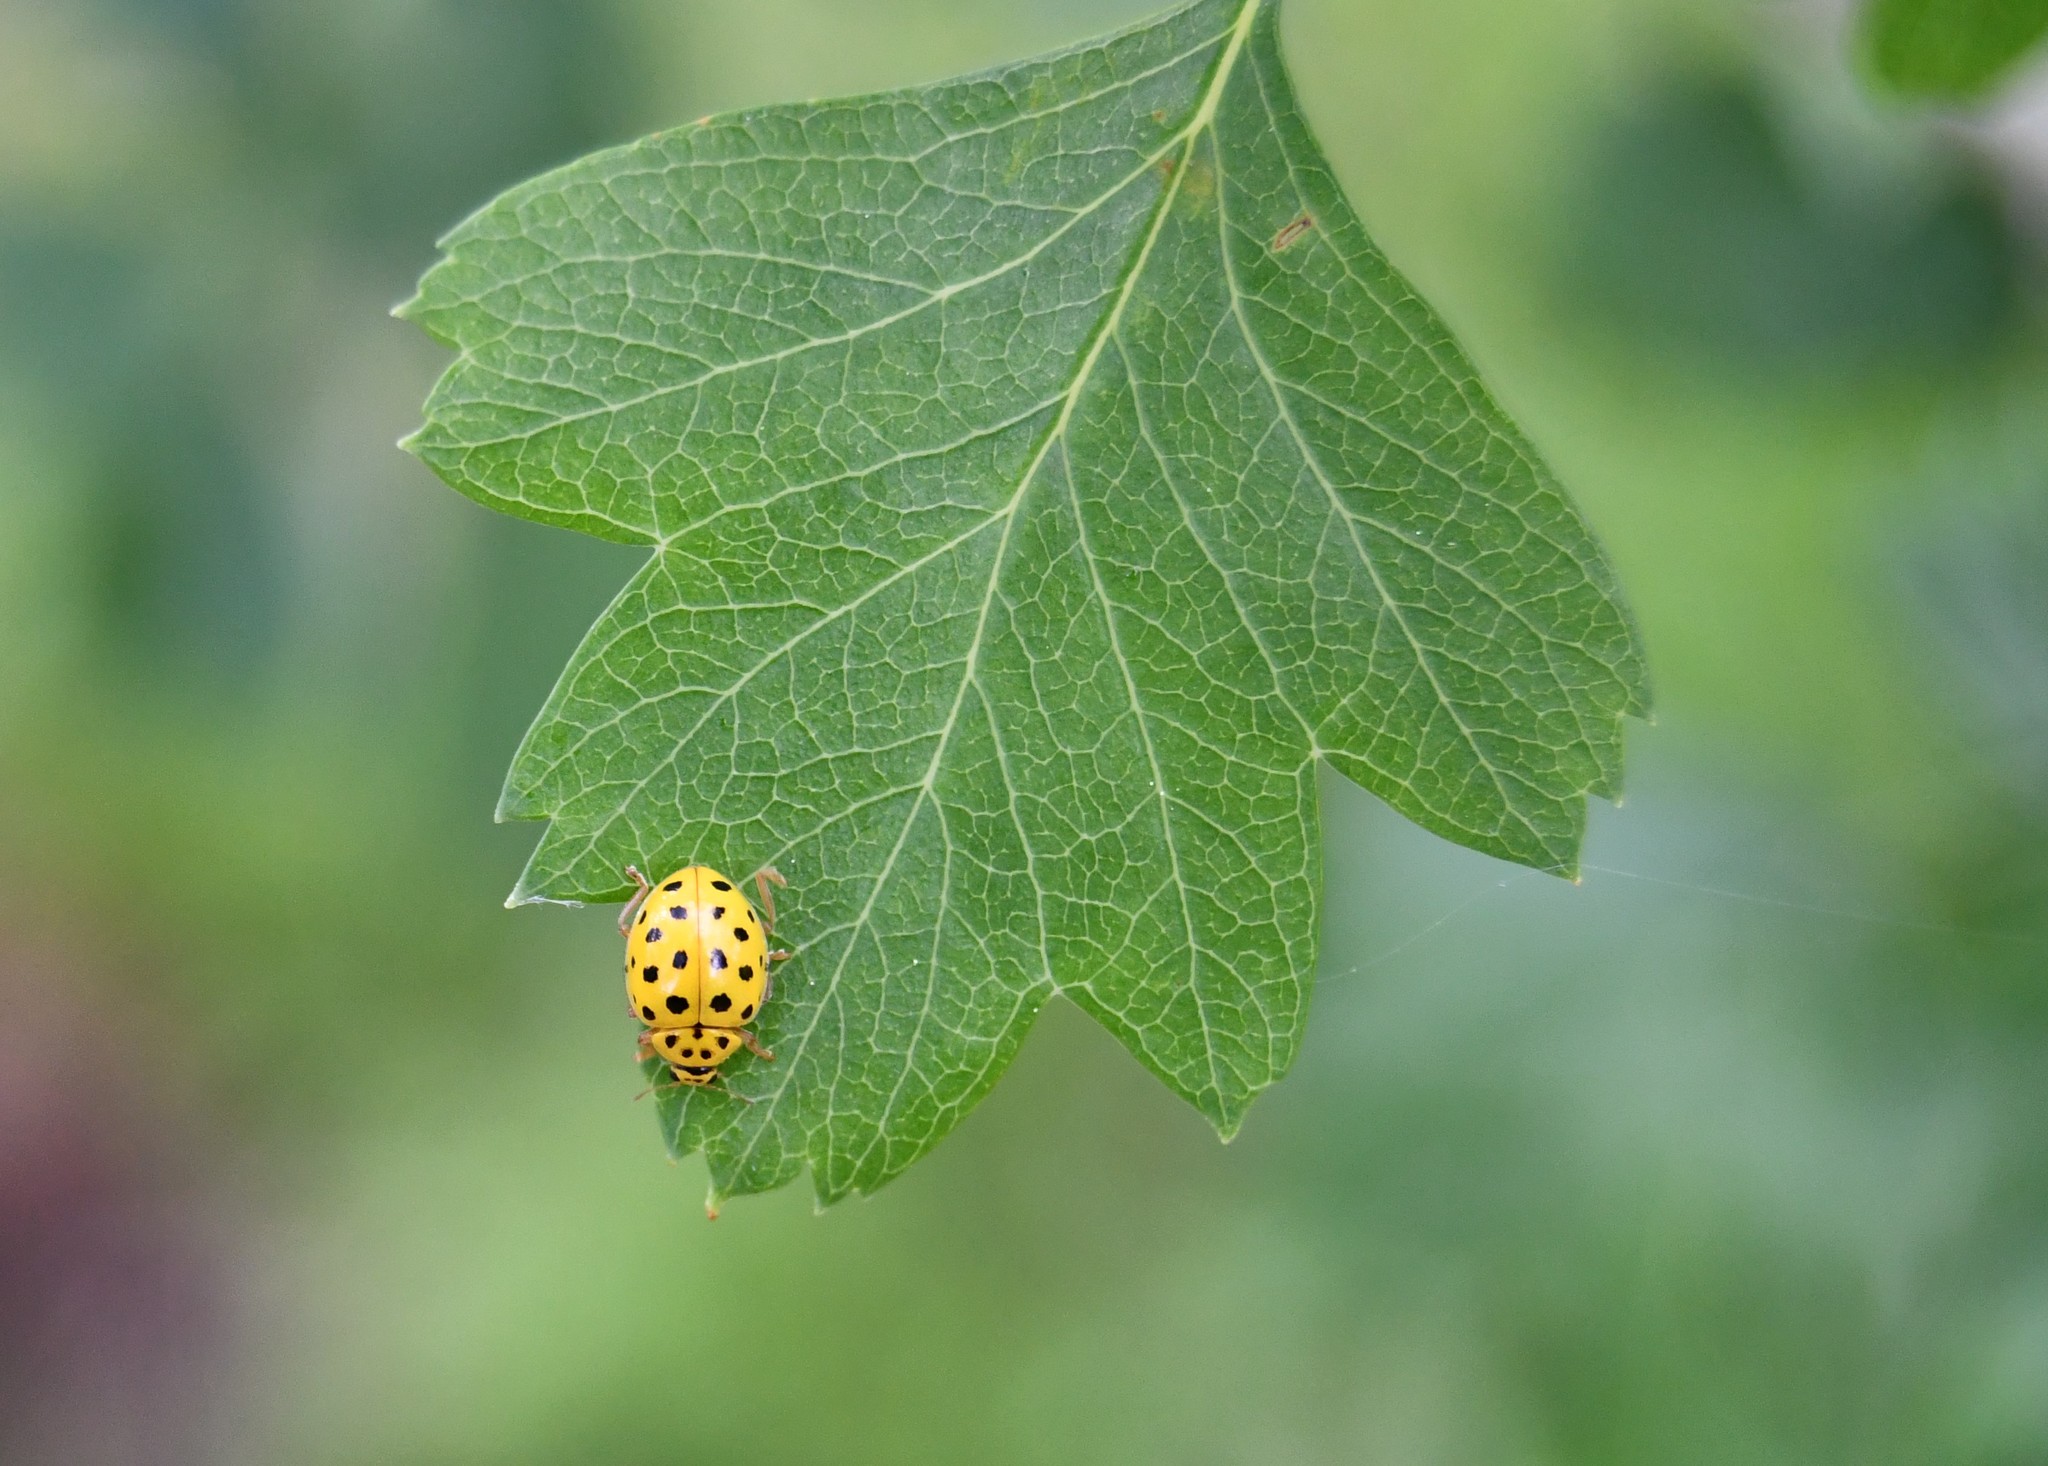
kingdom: Animalia
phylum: Arthropoda
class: Insecta
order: Coleoptera
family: Coccinellidae
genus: Psyllobora
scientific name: Psyllobora vigintiduopunctata
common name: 22-spot ladybird
